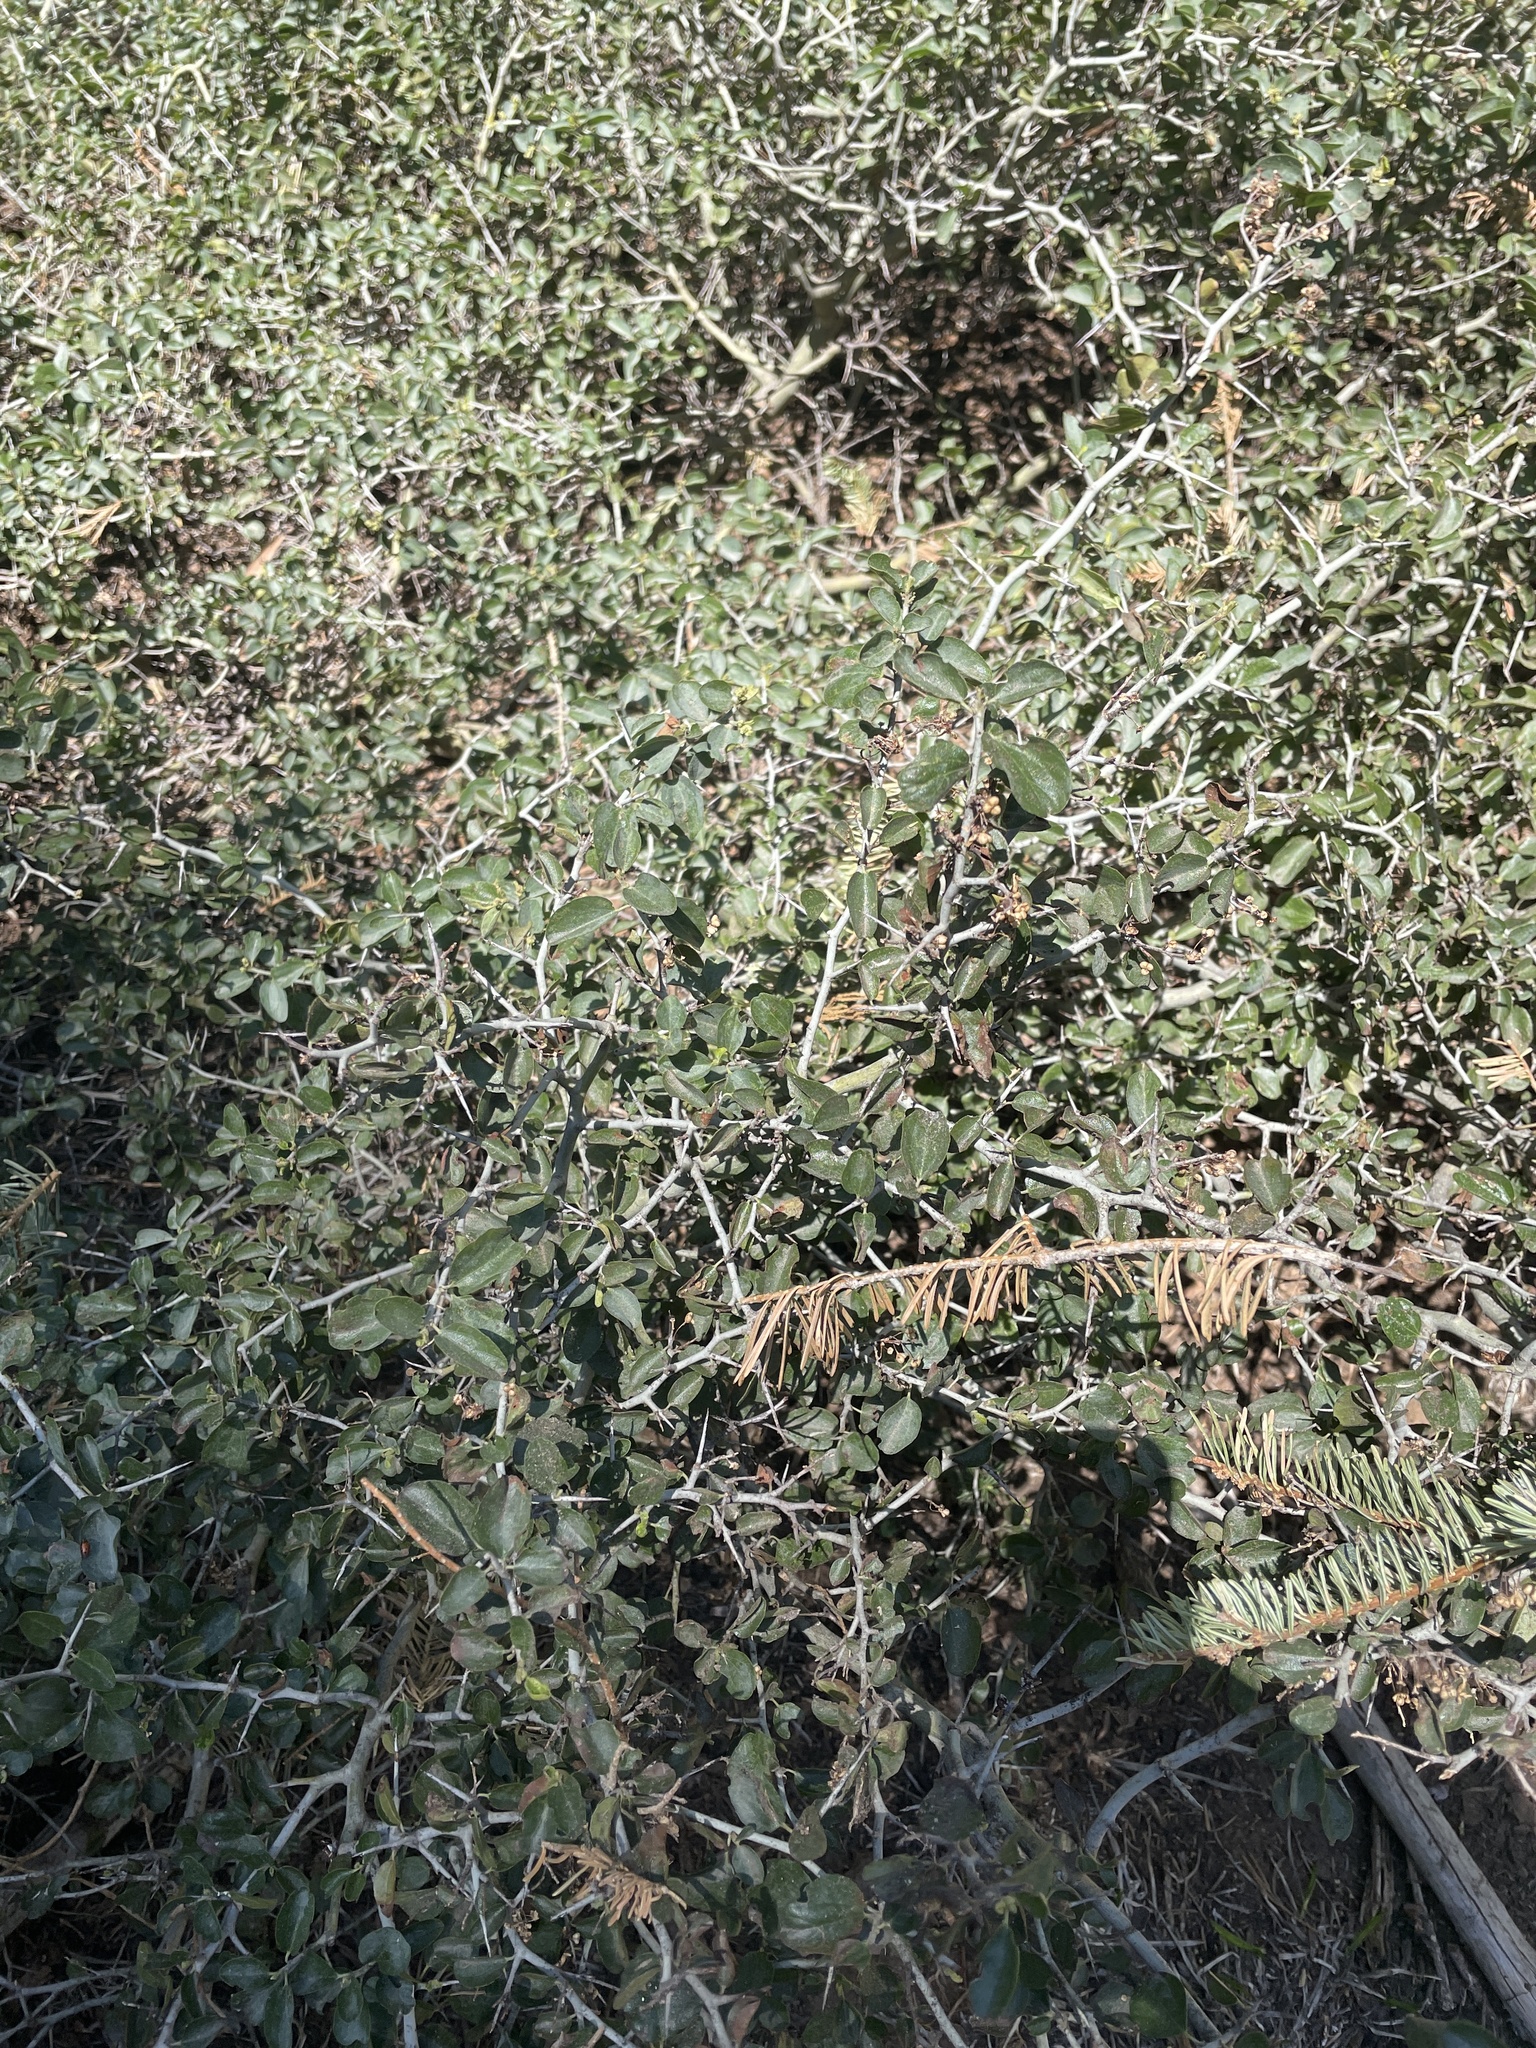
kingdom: Plantae
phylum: Tracheophyta
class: Magnoliopsida
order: Rosales
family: Rhamnaceae
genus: Ceanothus
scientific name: Ceanothus cordulatus
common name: Mountain whitethorn
